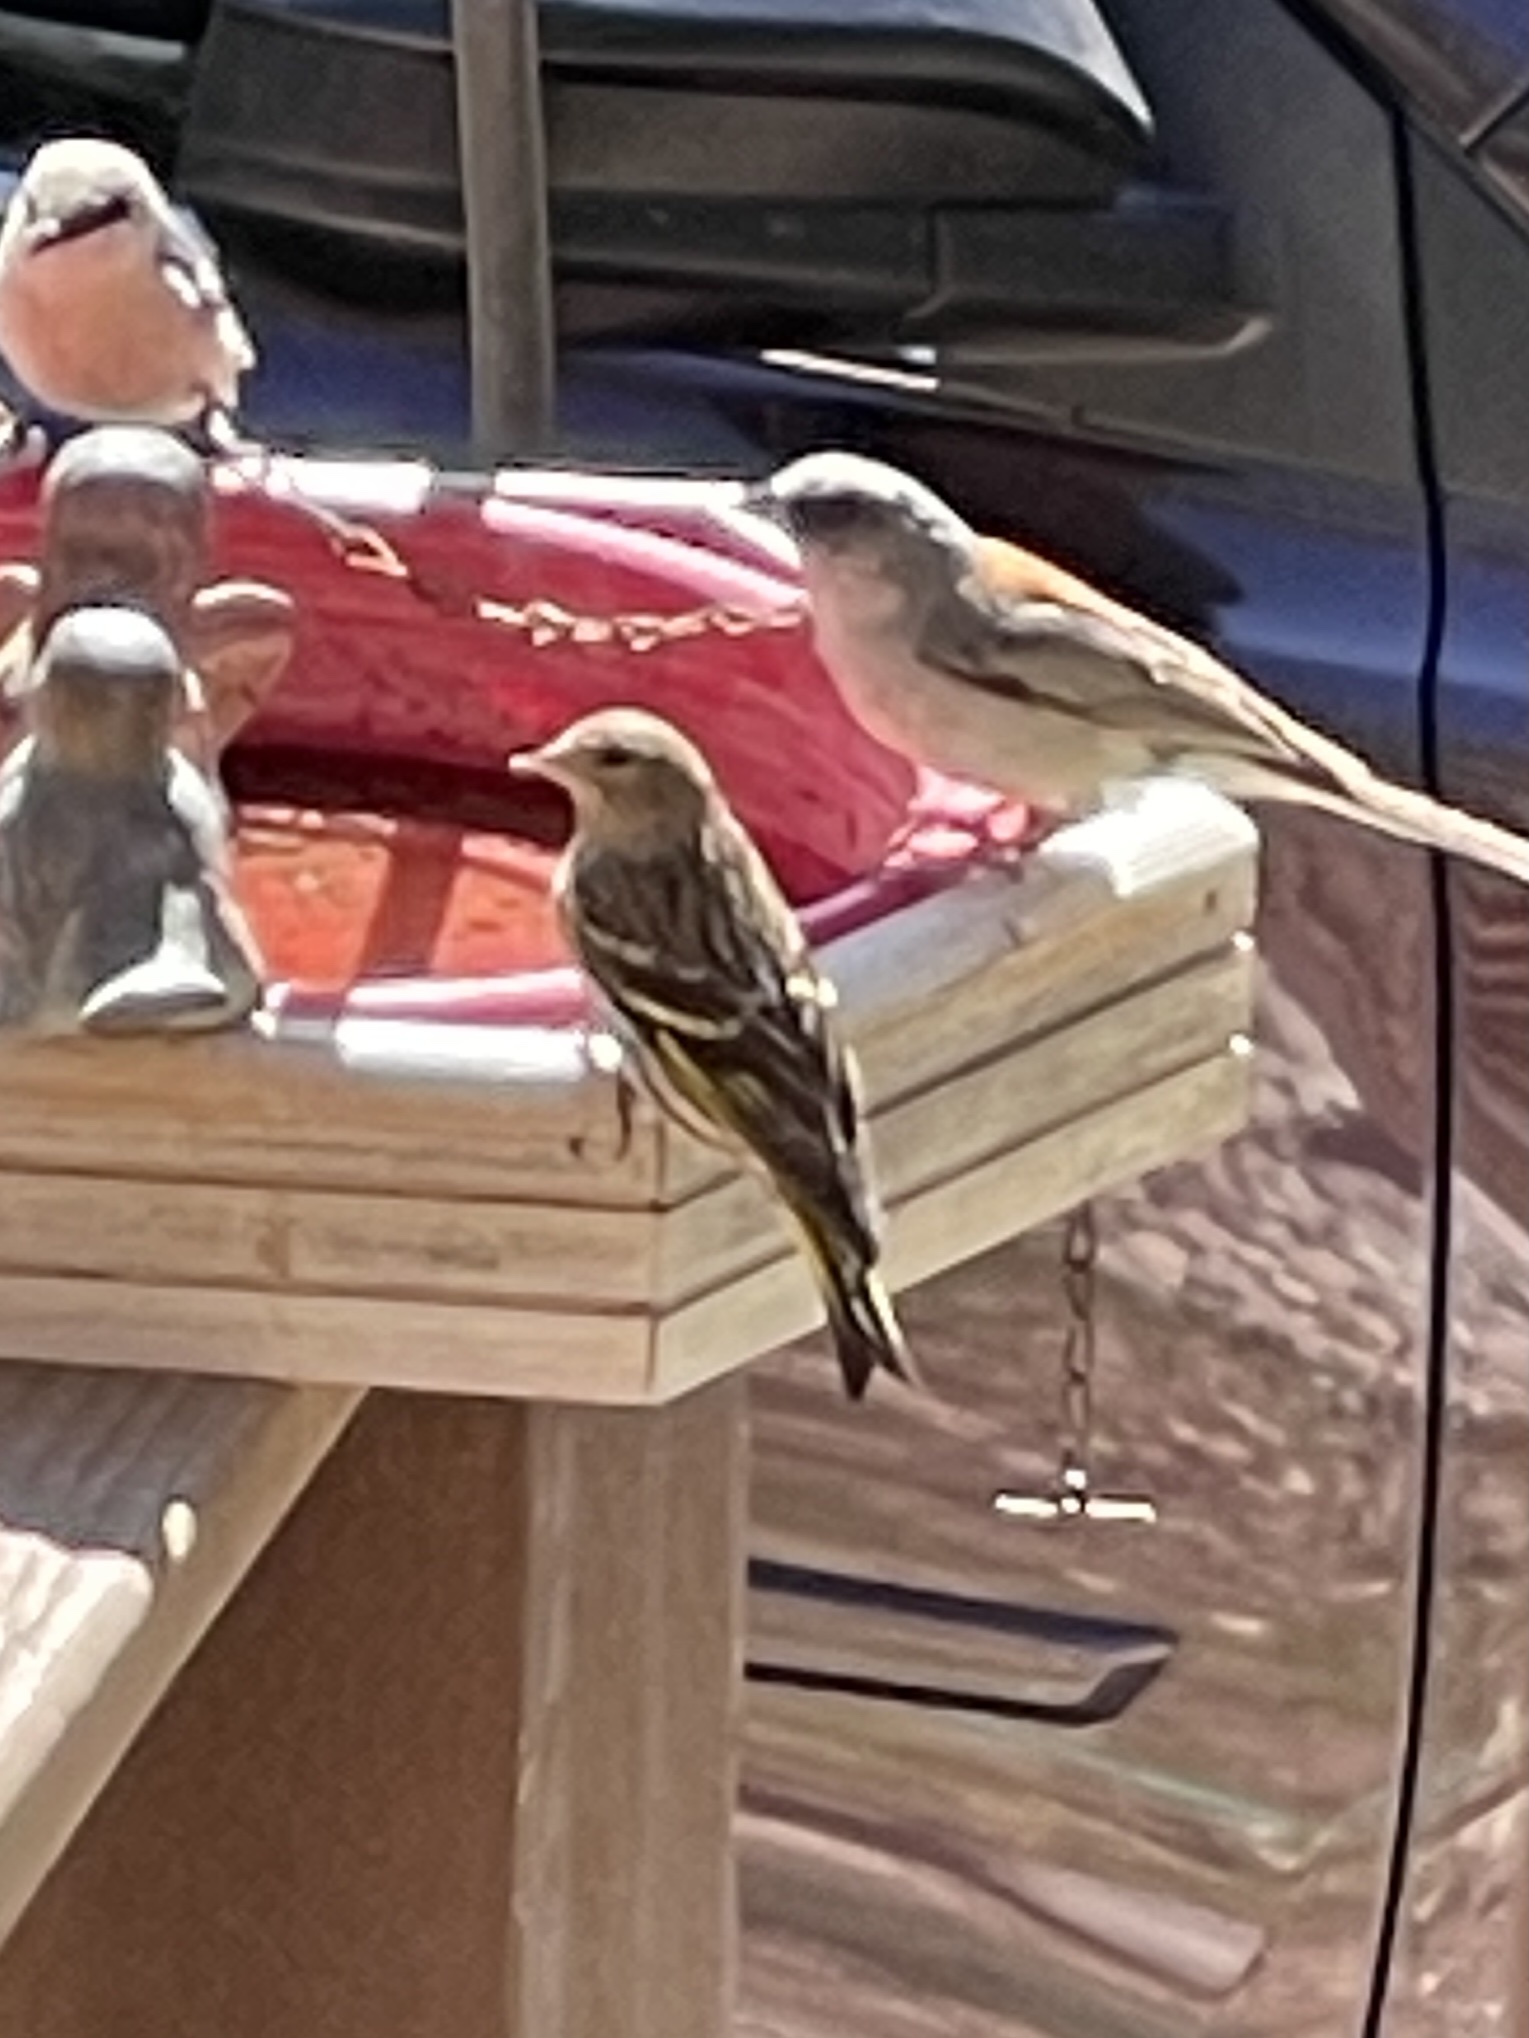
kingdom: Animalia
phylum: Chordata
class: Aves
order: Passeriformes
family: Fringillidae
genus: Spinus
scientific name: Spinus pinus
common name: Pine siskin
